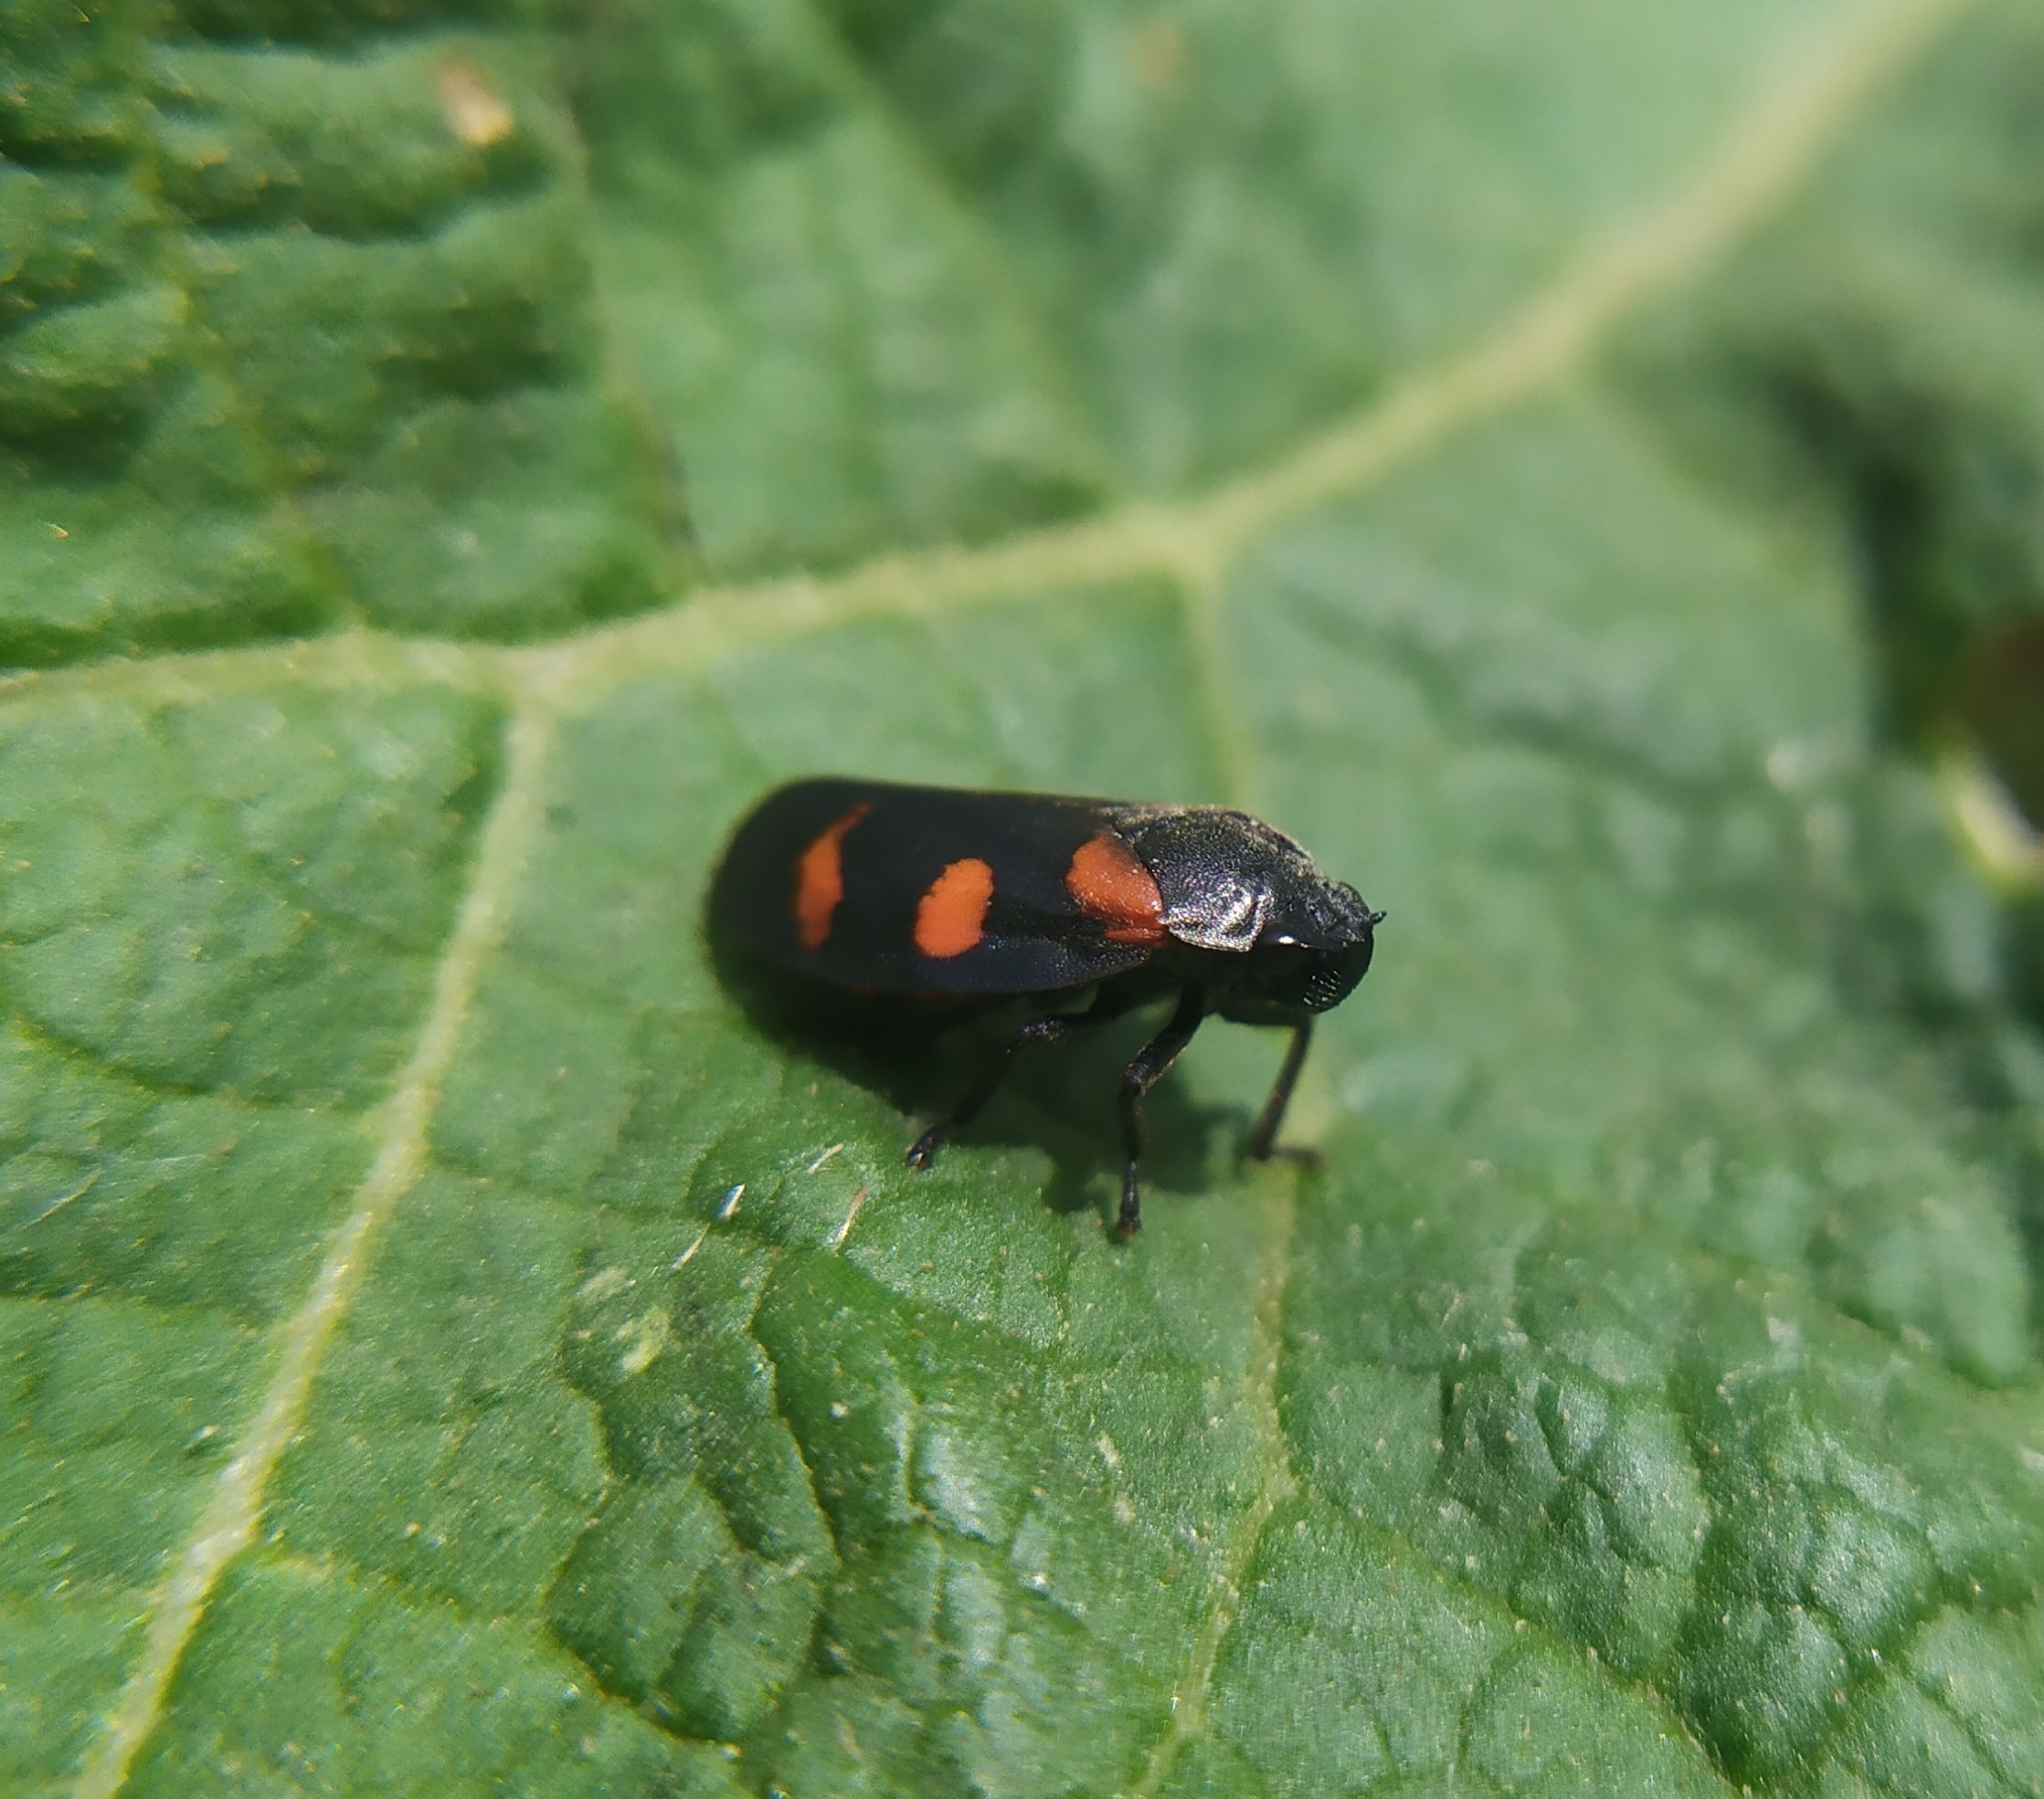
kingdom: Animalia
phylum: Arthropoda
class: Insecta
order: Hemiptera
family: Cercopidae
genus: Cercopis
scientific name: Cercopis
